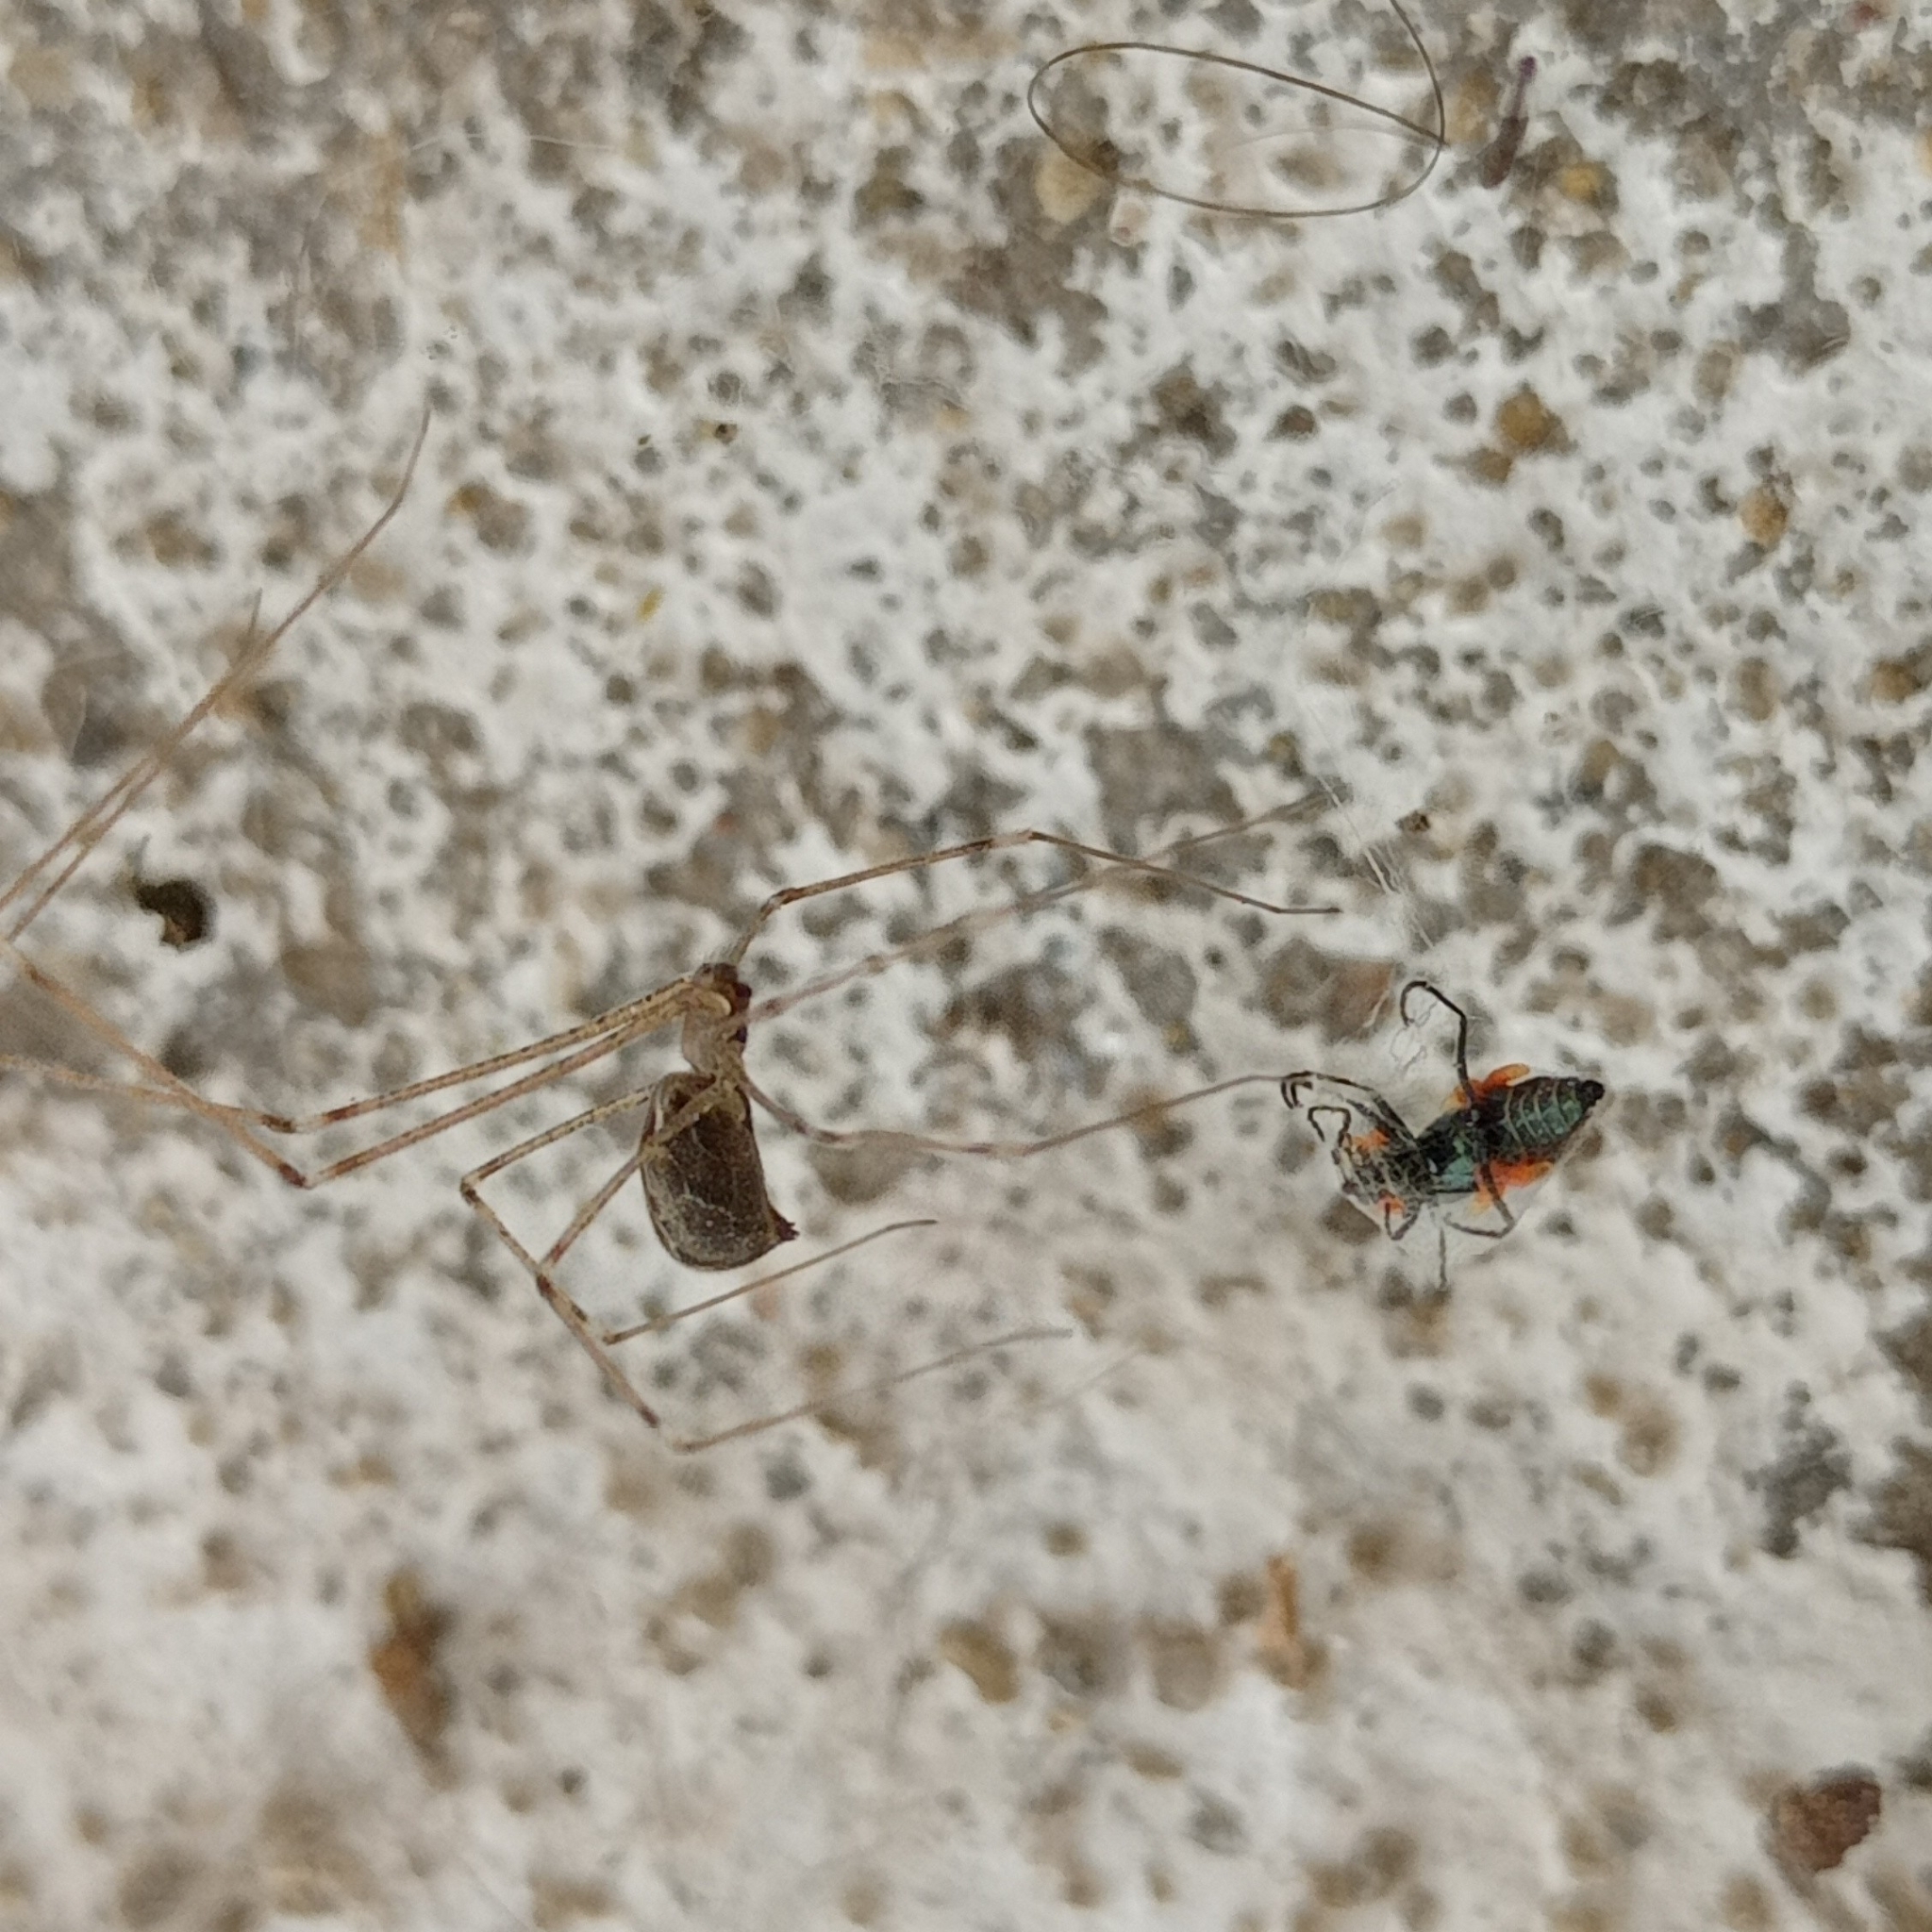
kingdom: Animalia
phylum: Arthropoda
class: Arachnida
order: Araneae
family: Pholcidae
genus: Holocnemus
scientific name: Holocnemus pluchei
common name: Marbled cellar spider
